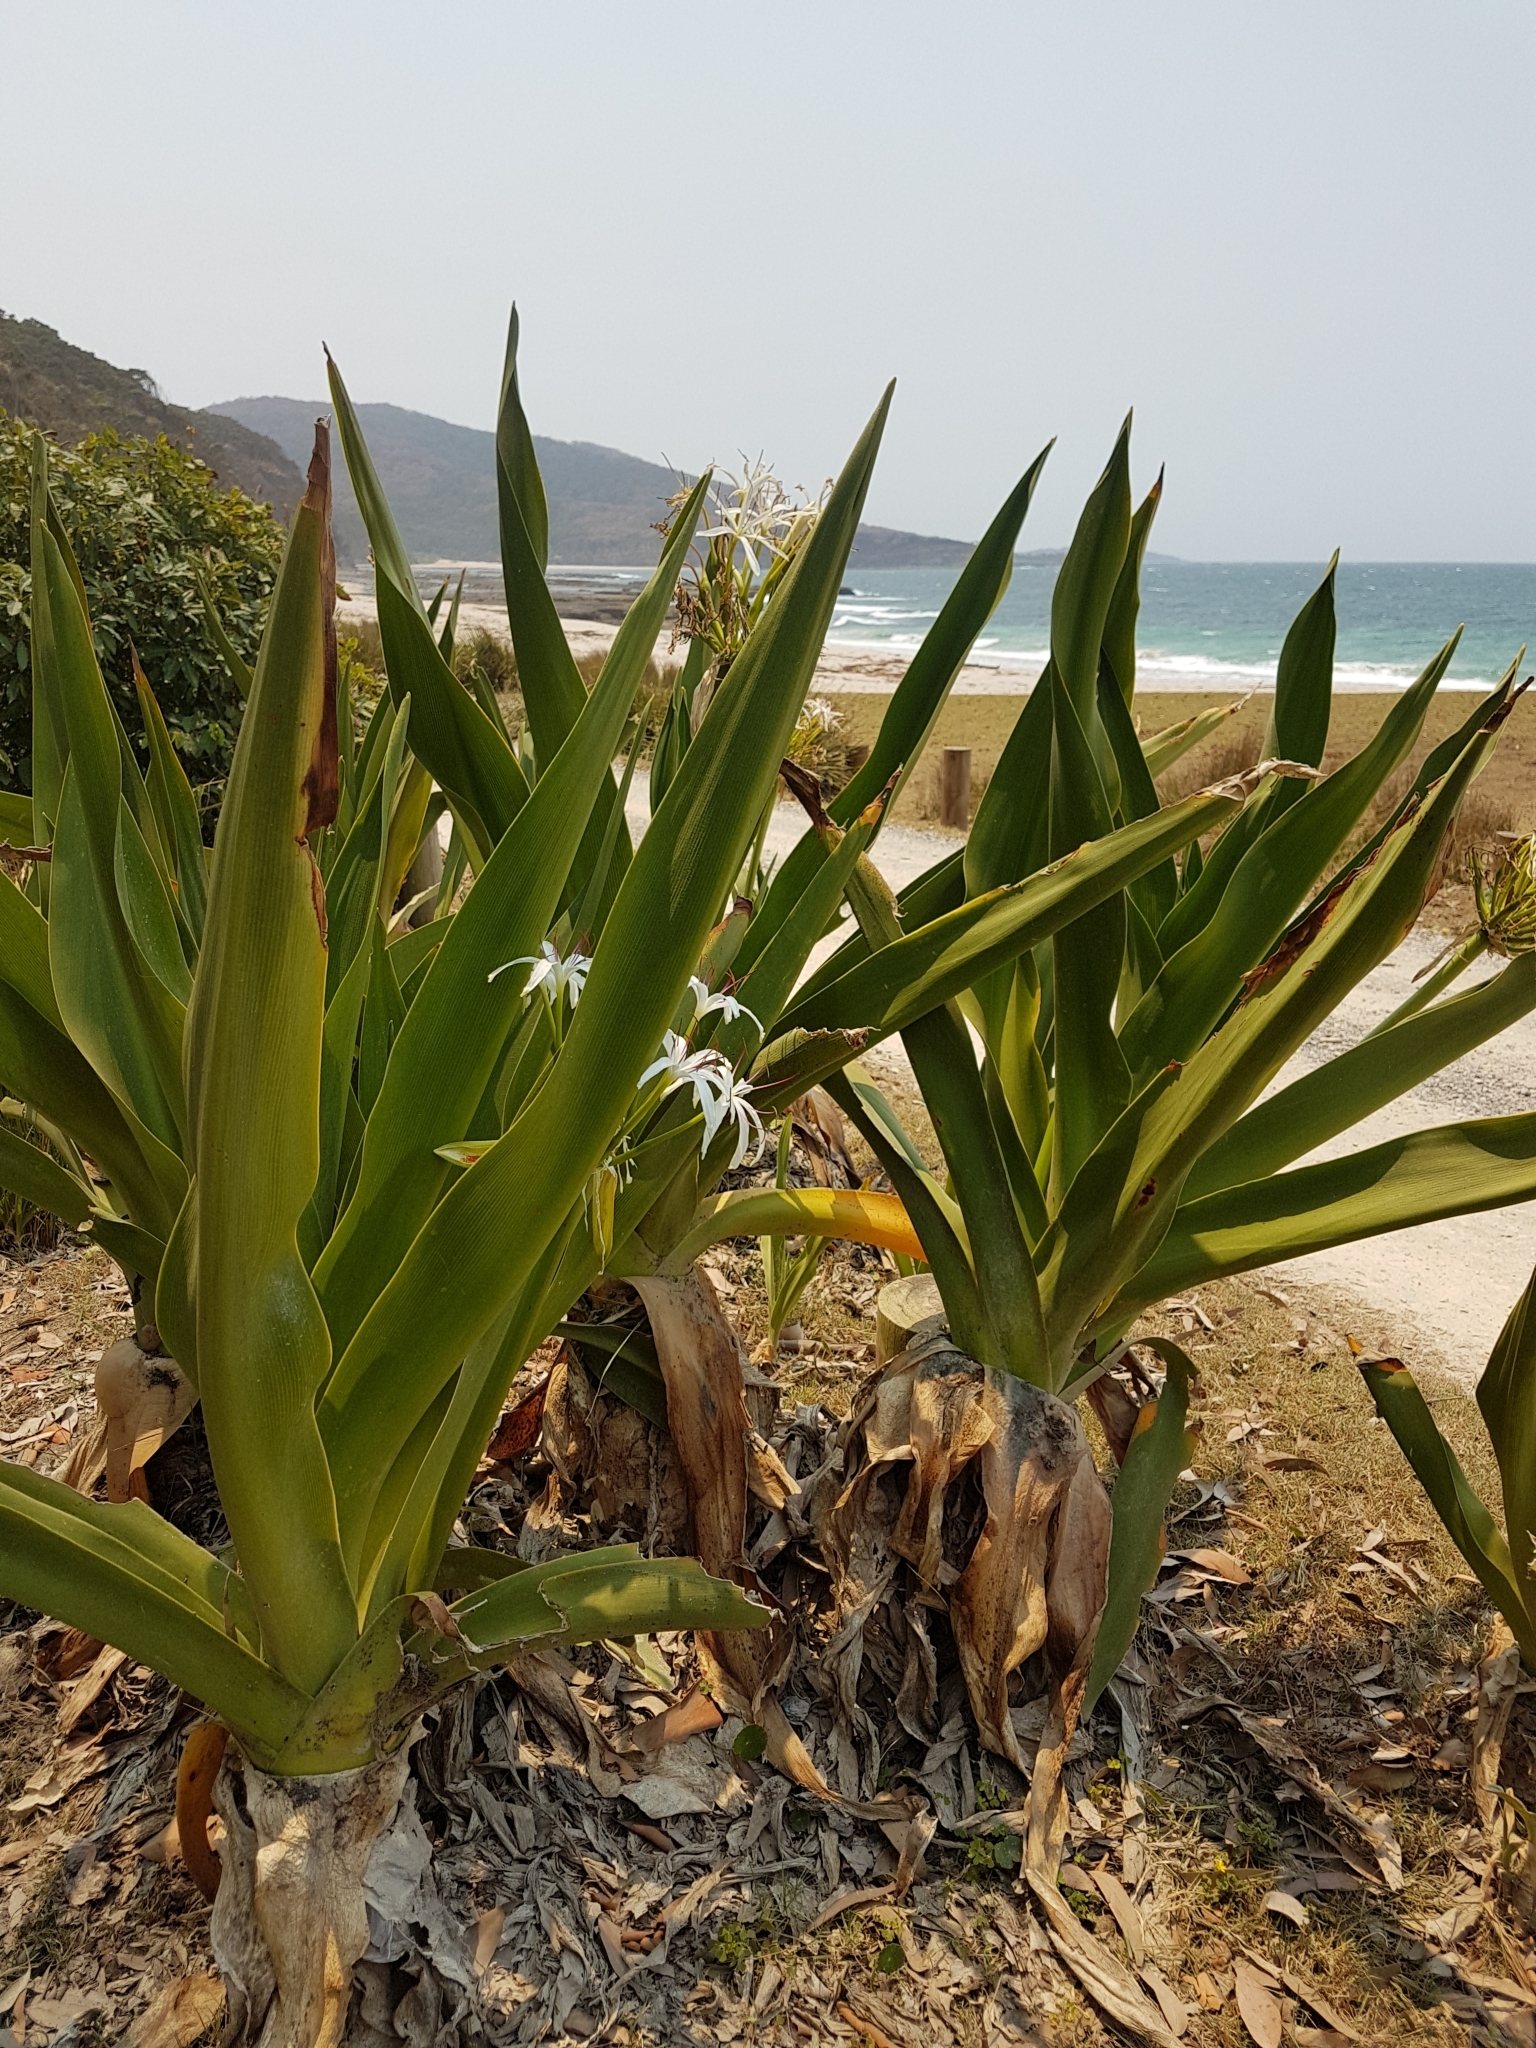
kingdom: Plantae
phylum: Tracheophyta
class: Liliopsida
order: Asparagales
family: Amaryllidaceae
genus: Crinum
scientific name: Crinum pedunculatum
